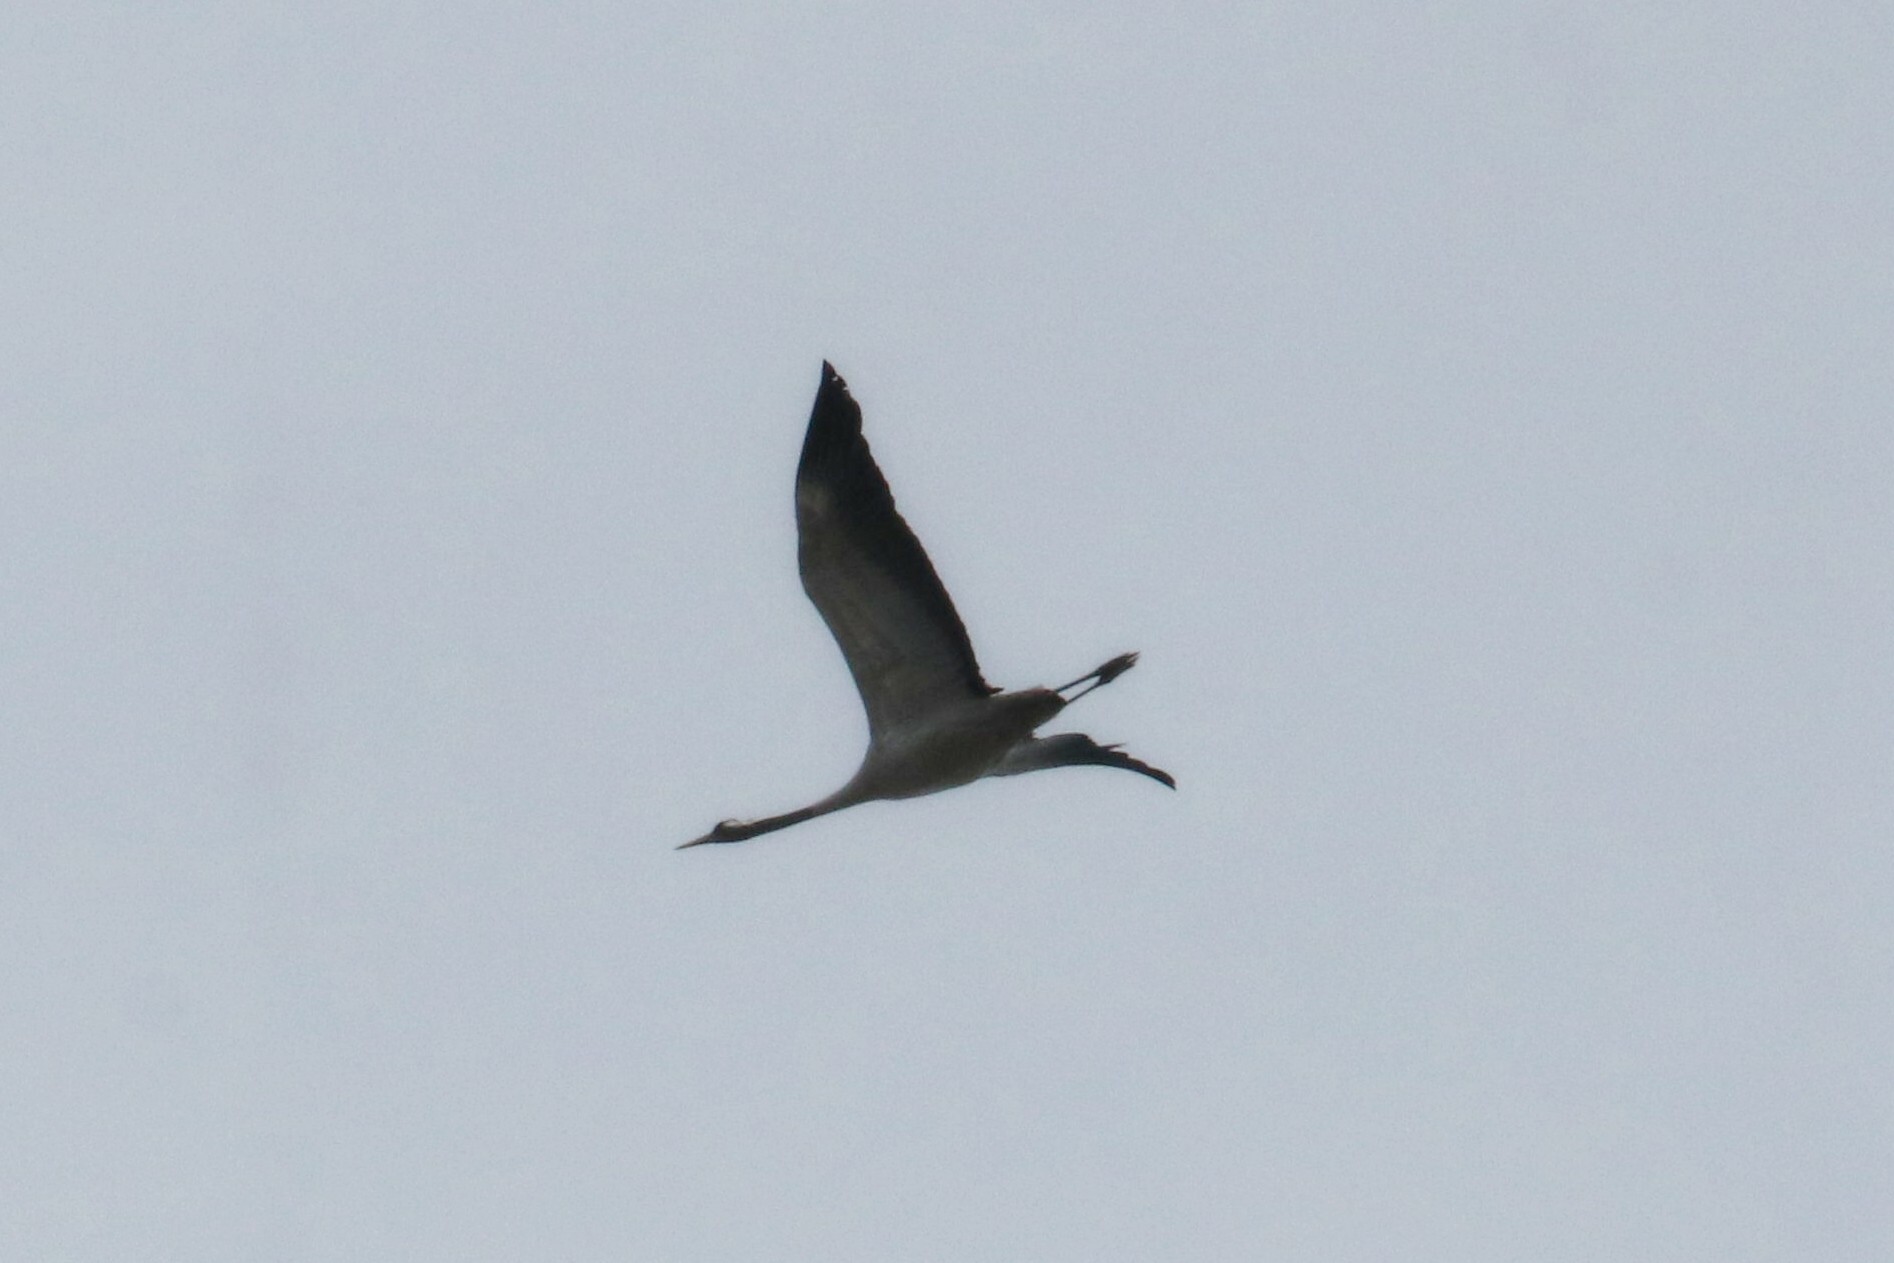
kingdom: Animalia
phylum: Chordata
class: Aves
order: Gruiformes
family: Gruidae
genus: Grus
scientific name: Grus grus
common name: Common crane
